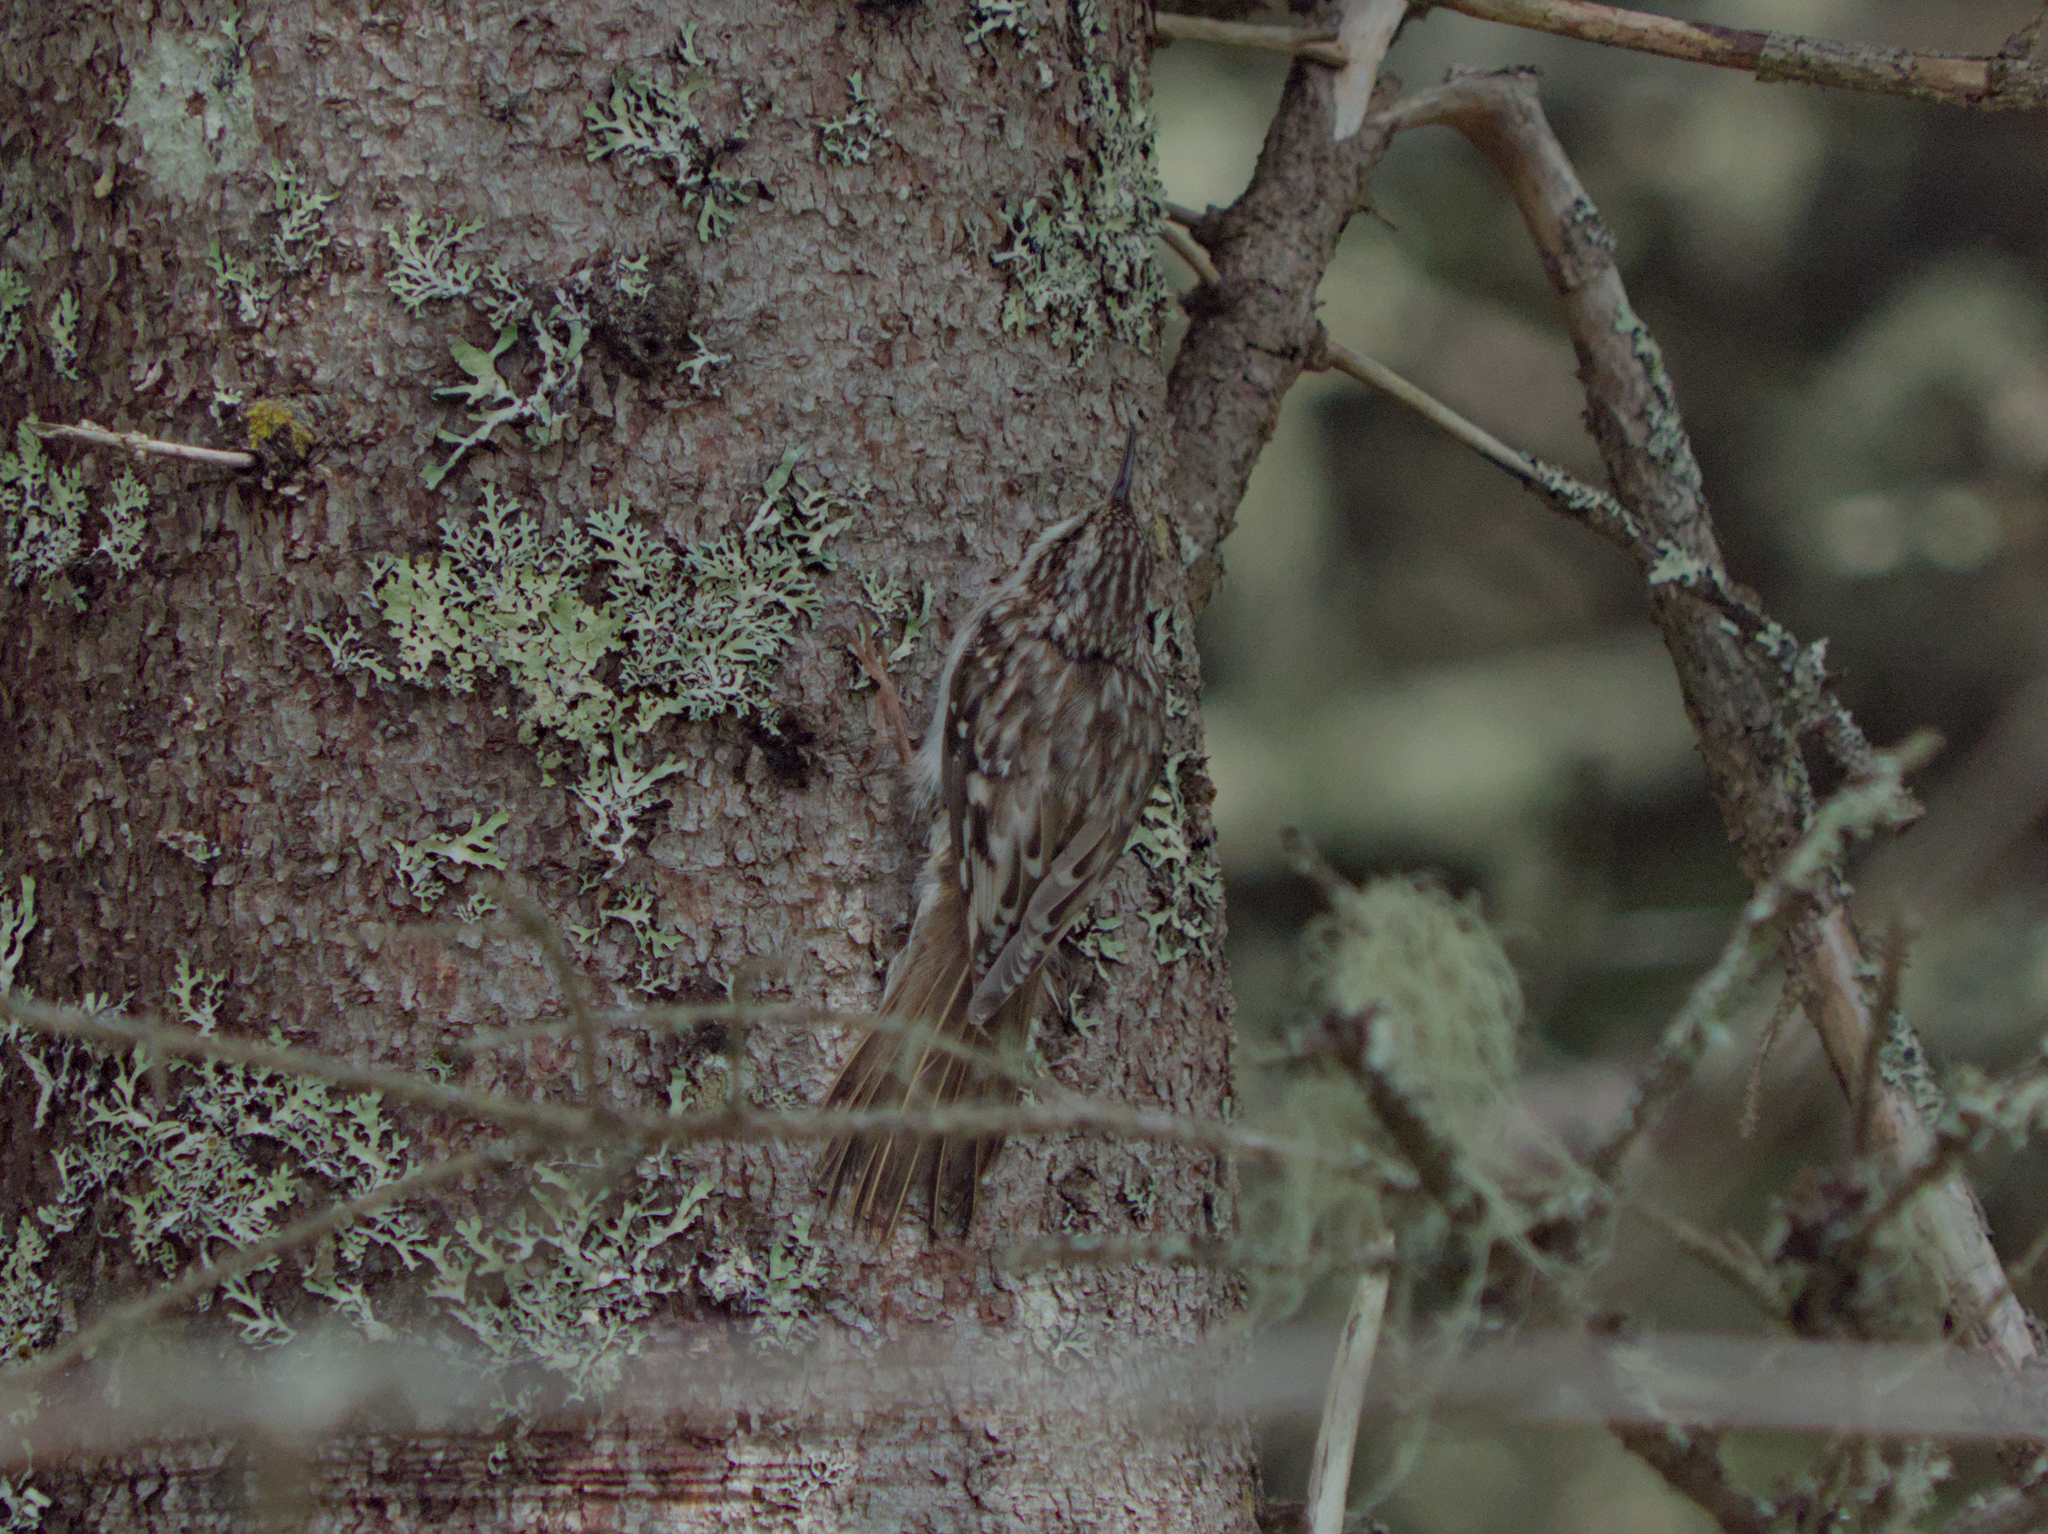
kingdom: Animalia
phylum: Chordata
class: Aves
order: Passeriformes
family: Certhiidae
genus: Certhia
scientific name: Certhia americana
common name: Brown creeper
